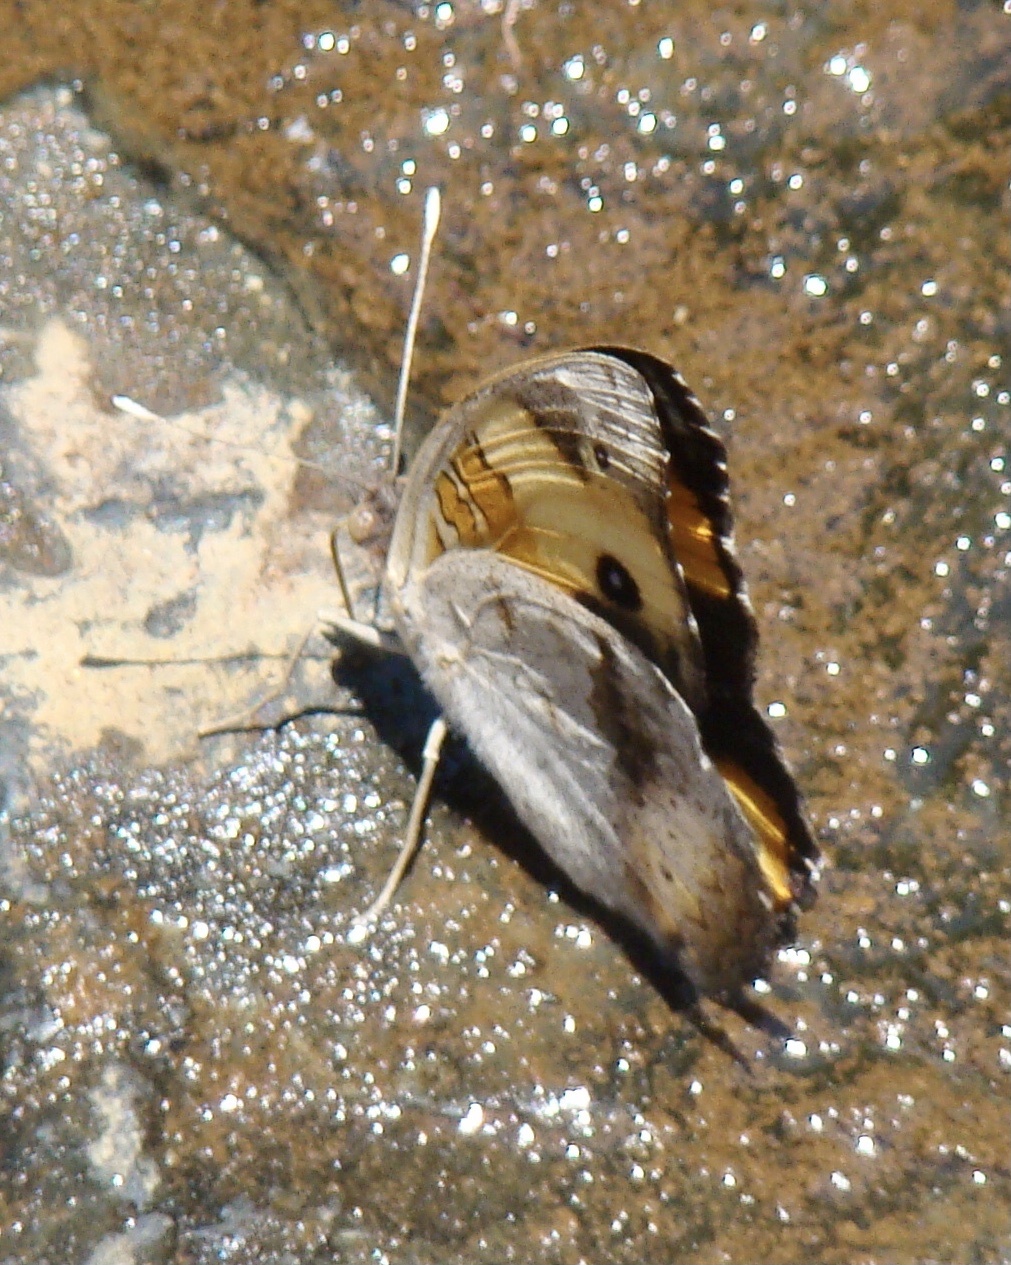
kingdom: Animalia
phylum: Arthropoda
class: Insecta
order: Lepidoptera
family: Nymphalidae
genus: Junonia
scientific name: Junonia hierta
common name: Yellow pansy
